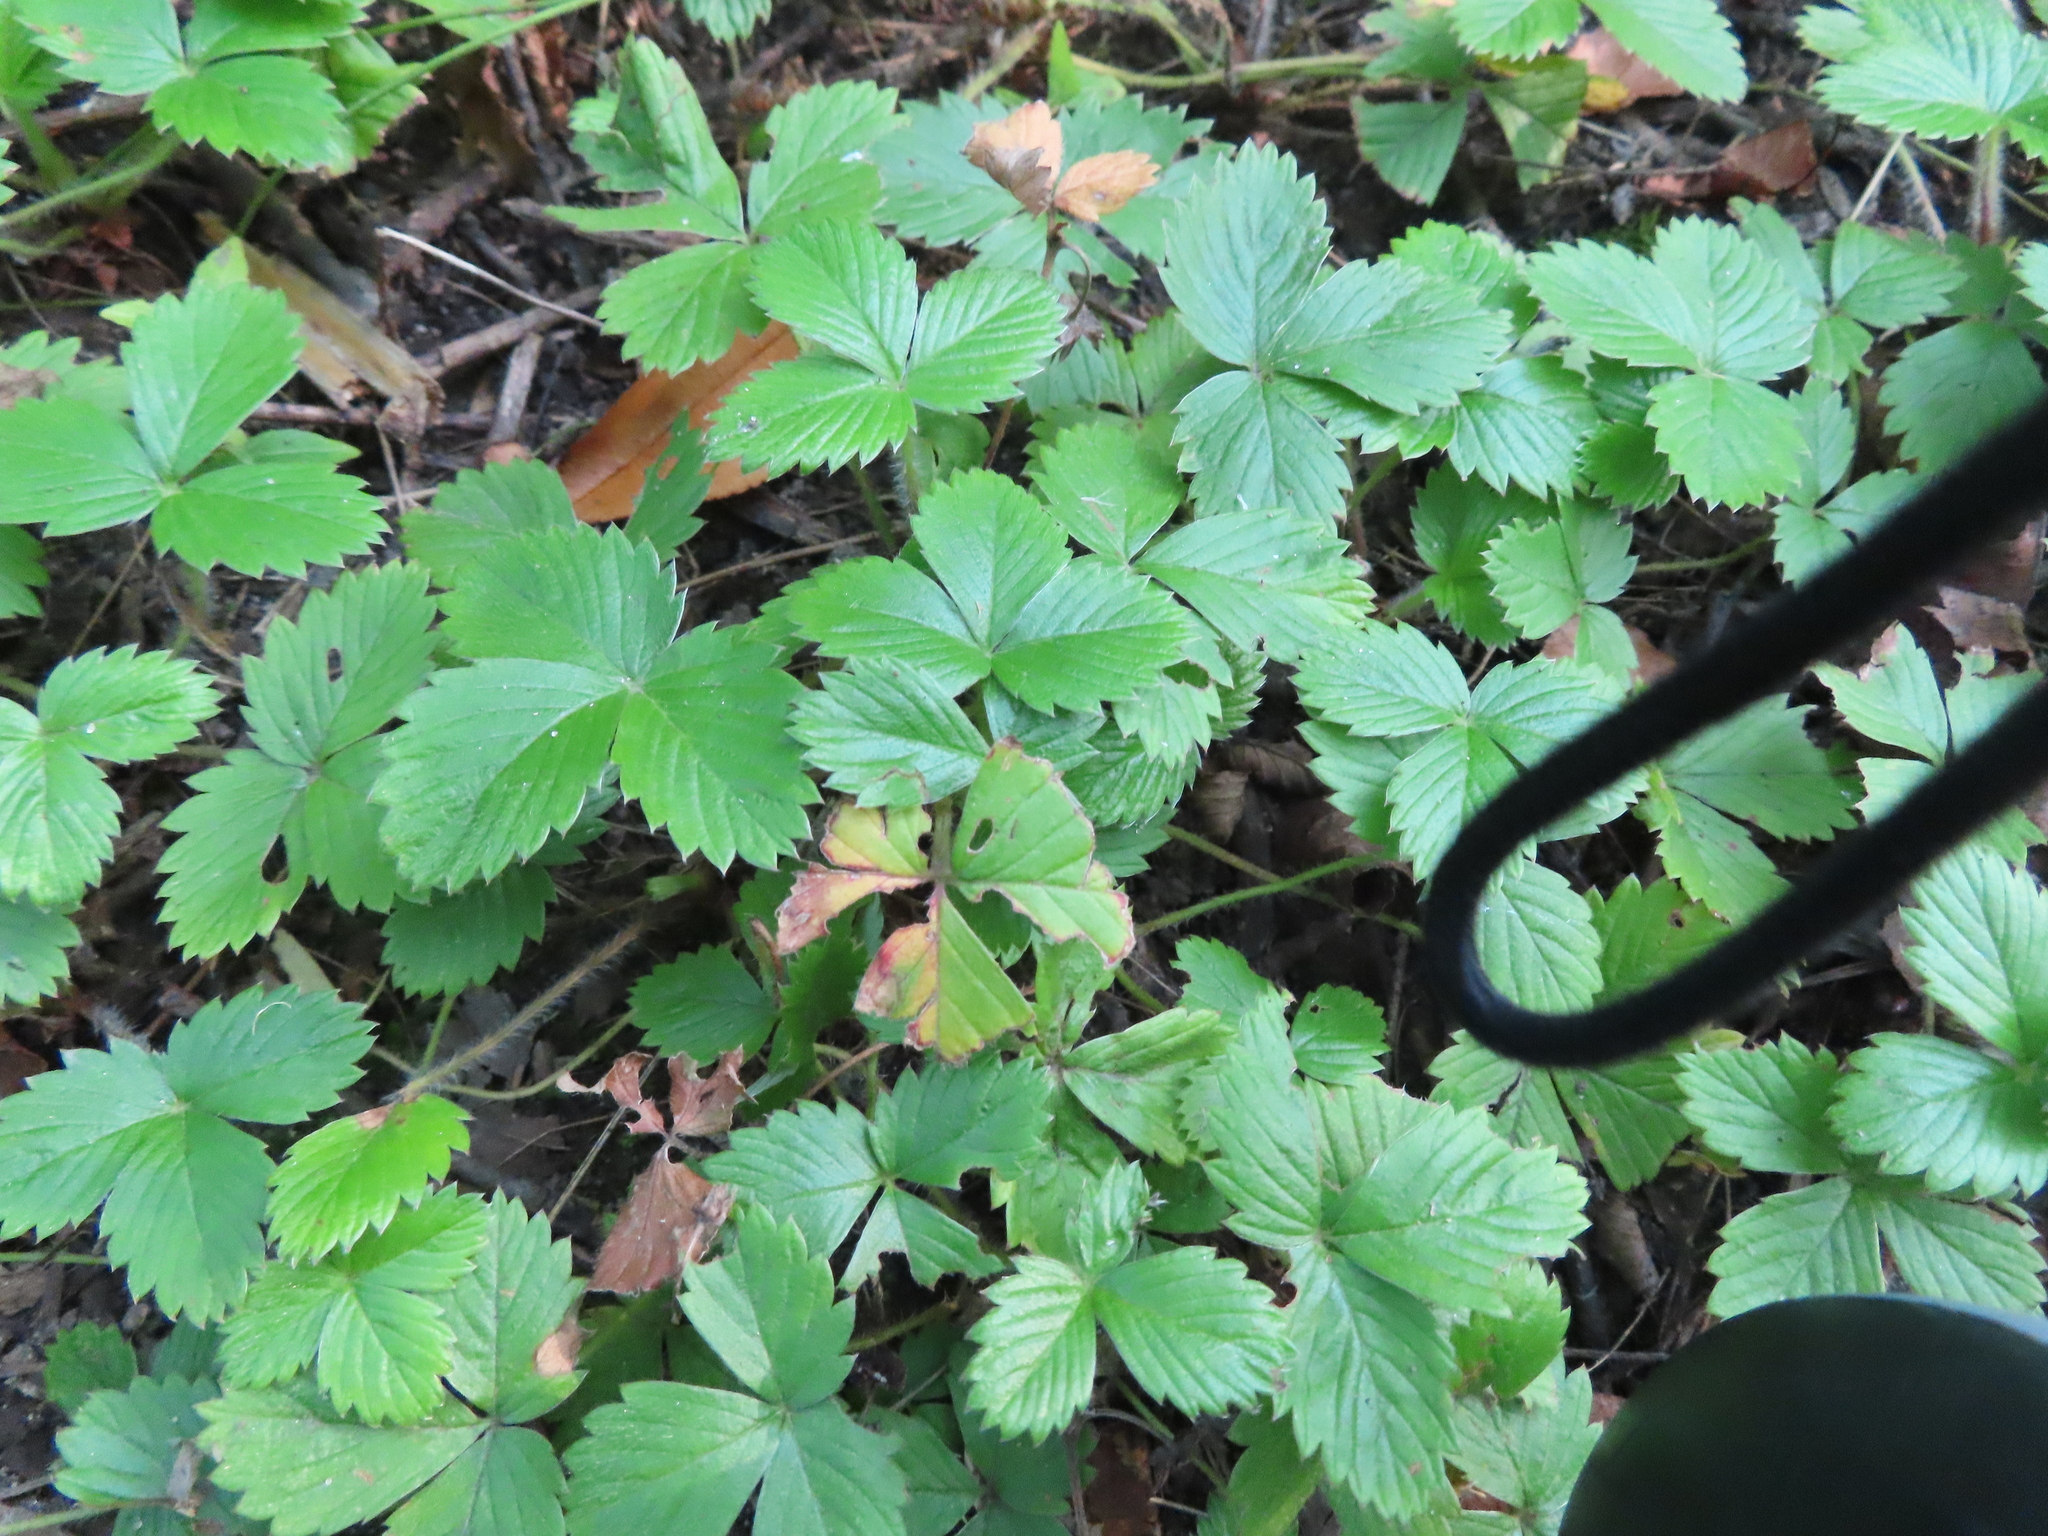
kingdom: Plantae
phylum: Tracheophyta
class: Magnoliopsida
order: Rosales
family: Rosaceae
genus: Potentilla
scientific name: Potentilla indica
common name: Yellow-flowered strawberry
